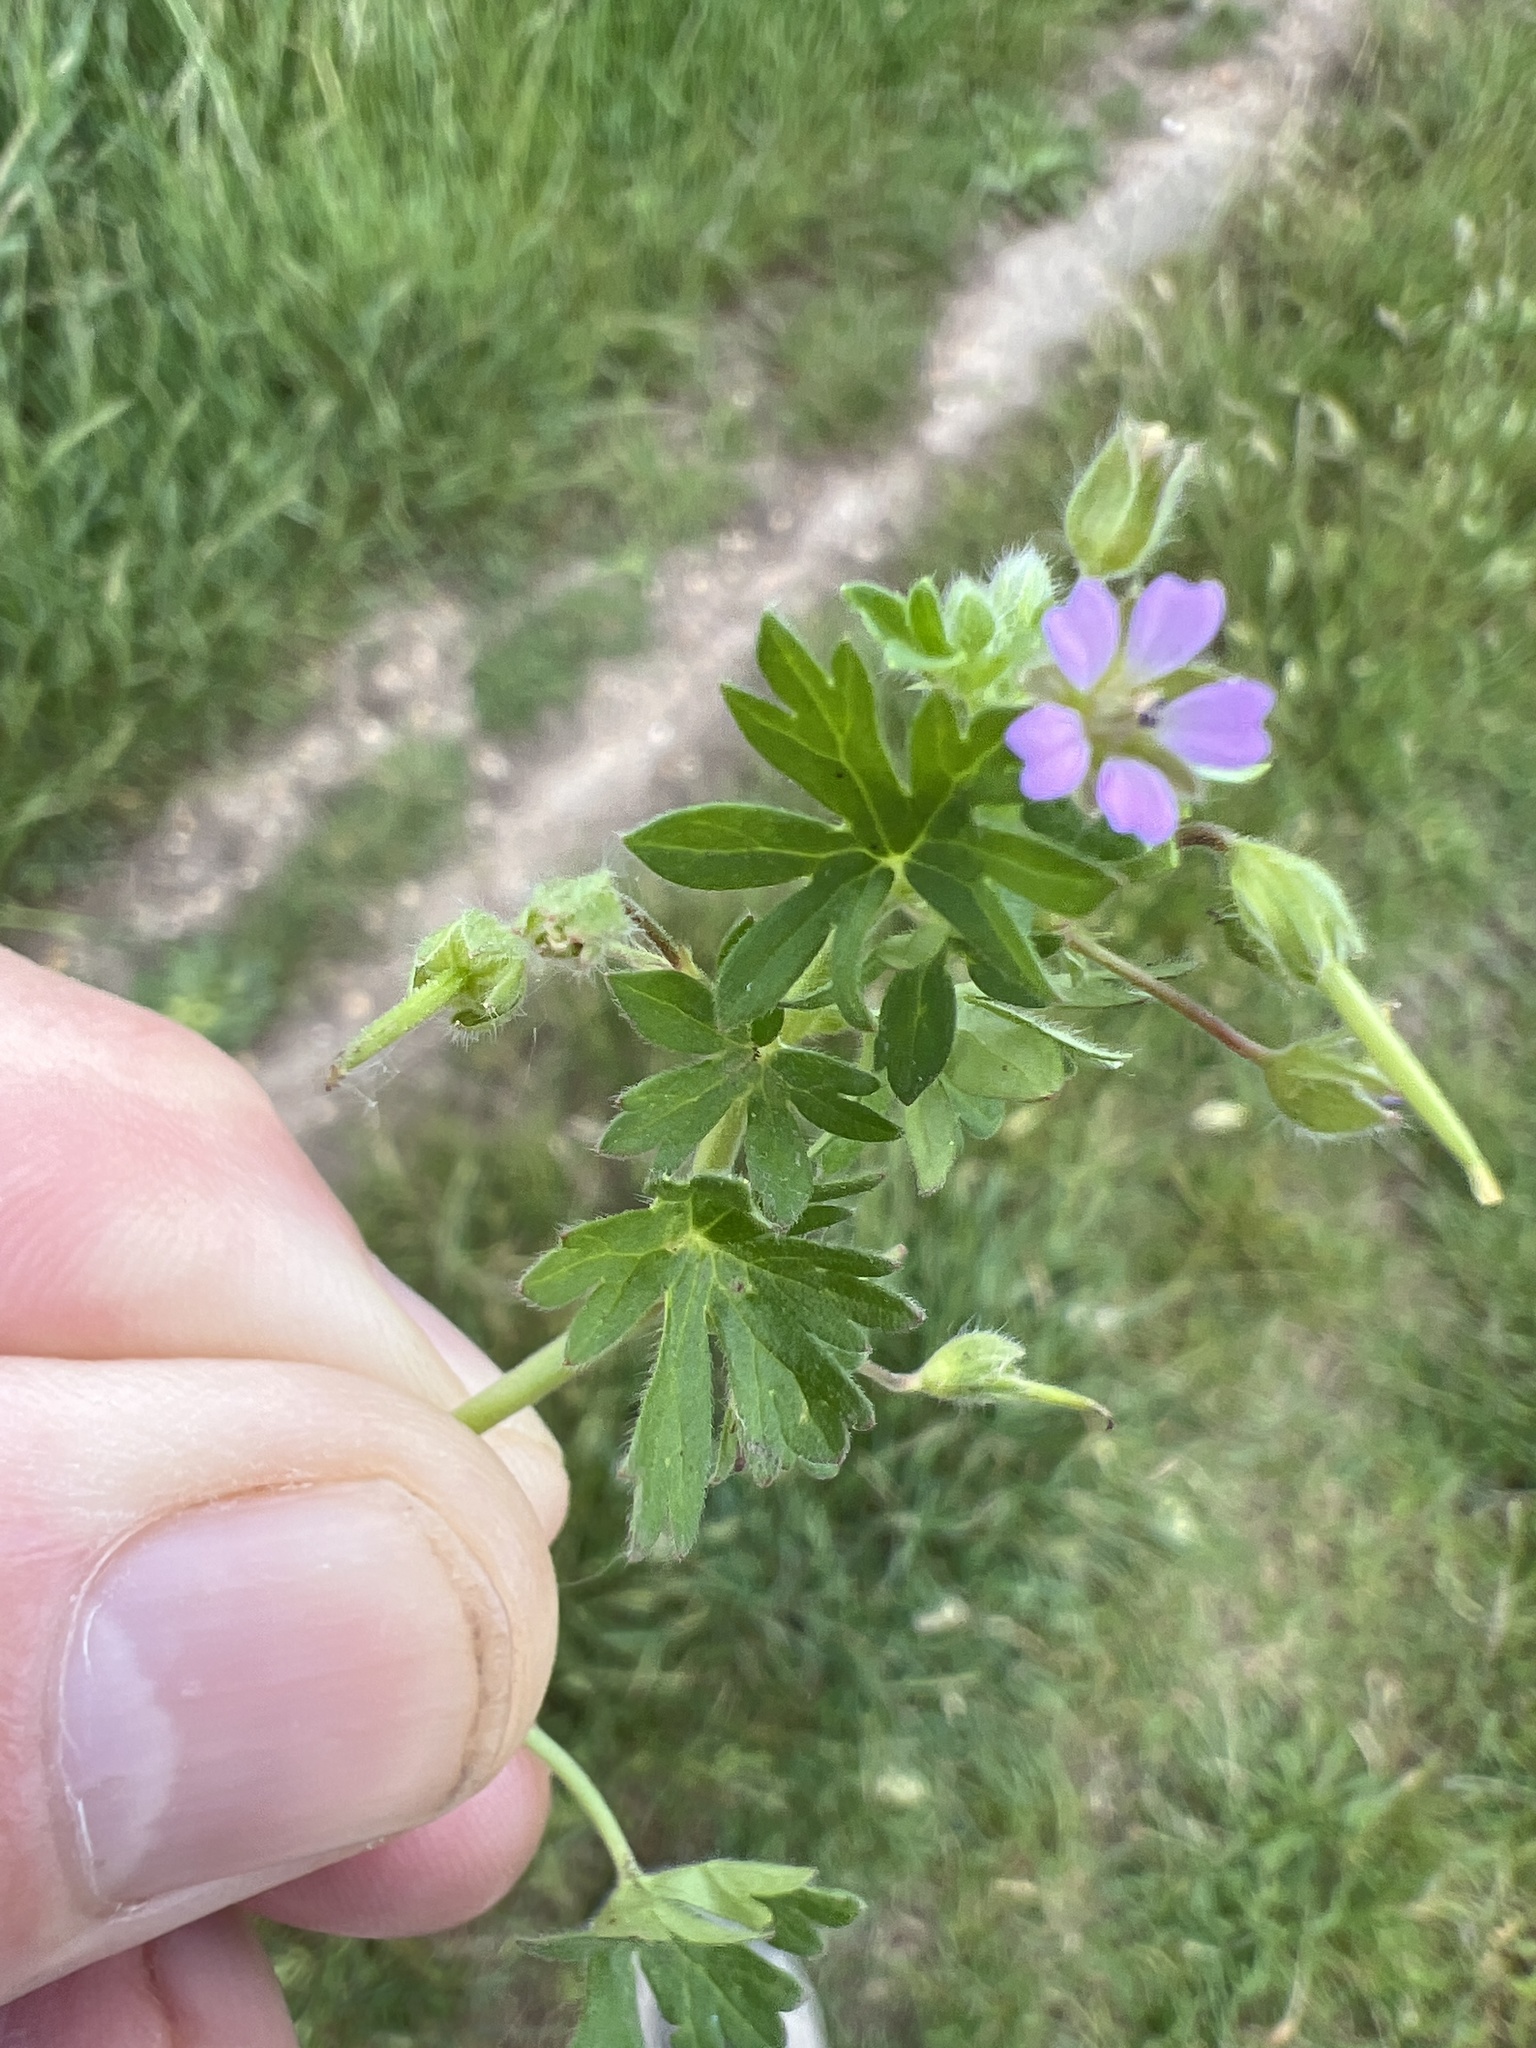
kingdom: Plantae
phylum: Tracheophyta
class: Magnoliopsida
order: Geraniales
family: Geraniaceae
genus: Geranium
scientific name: Geranium pusillum
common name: Small geranium
